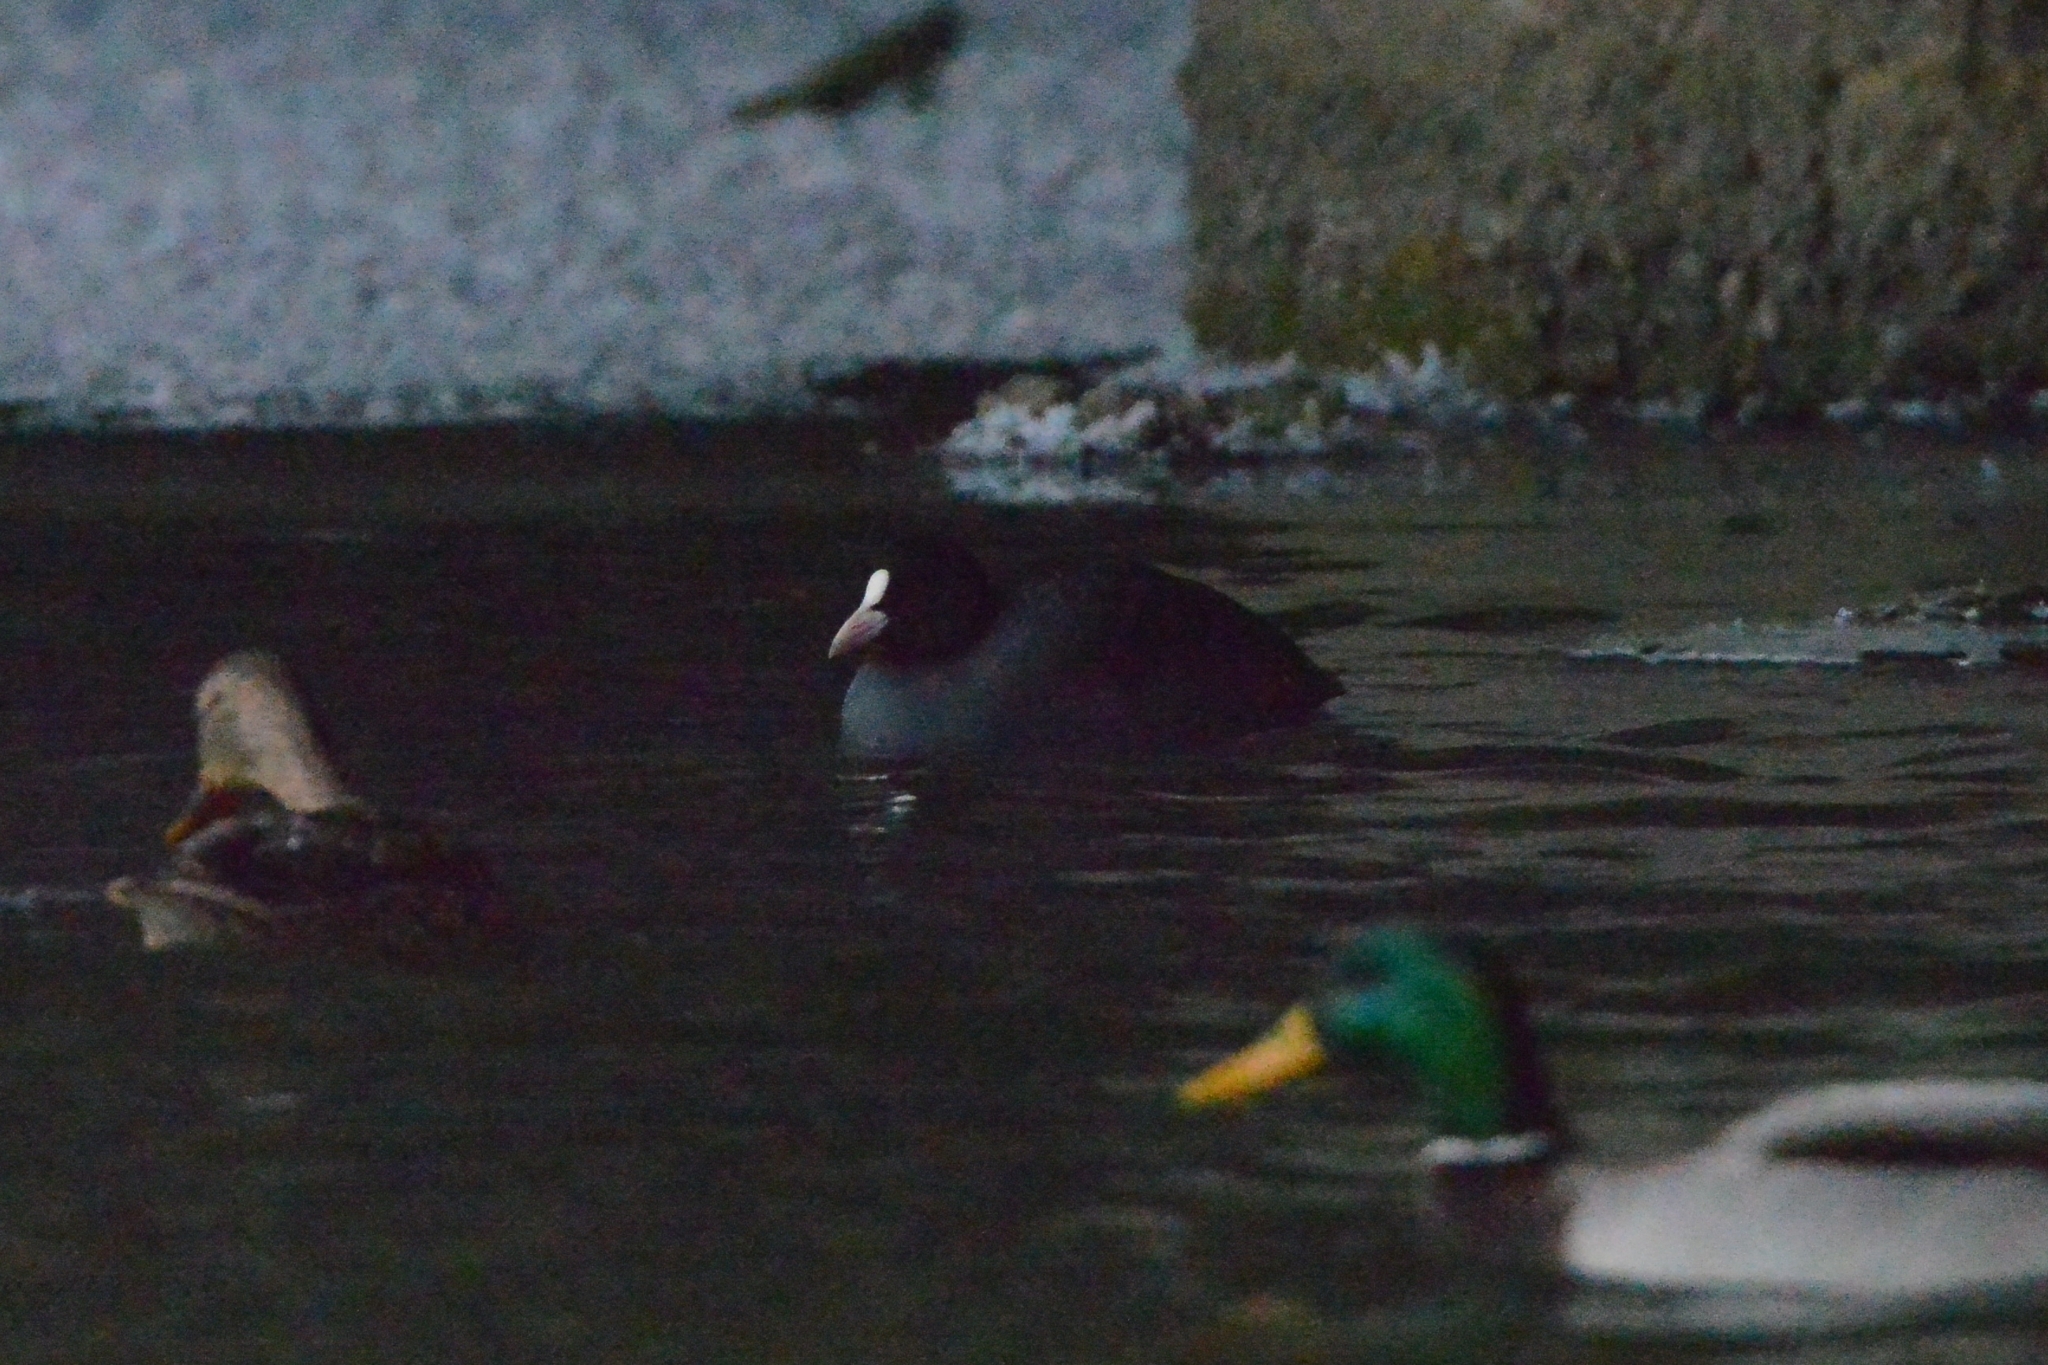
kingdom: Animalia
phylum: Chordata
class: Aves
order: Gruiformes
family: Rallidae
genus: Fulica
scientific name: Fulica atra
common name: Eurasian coot
